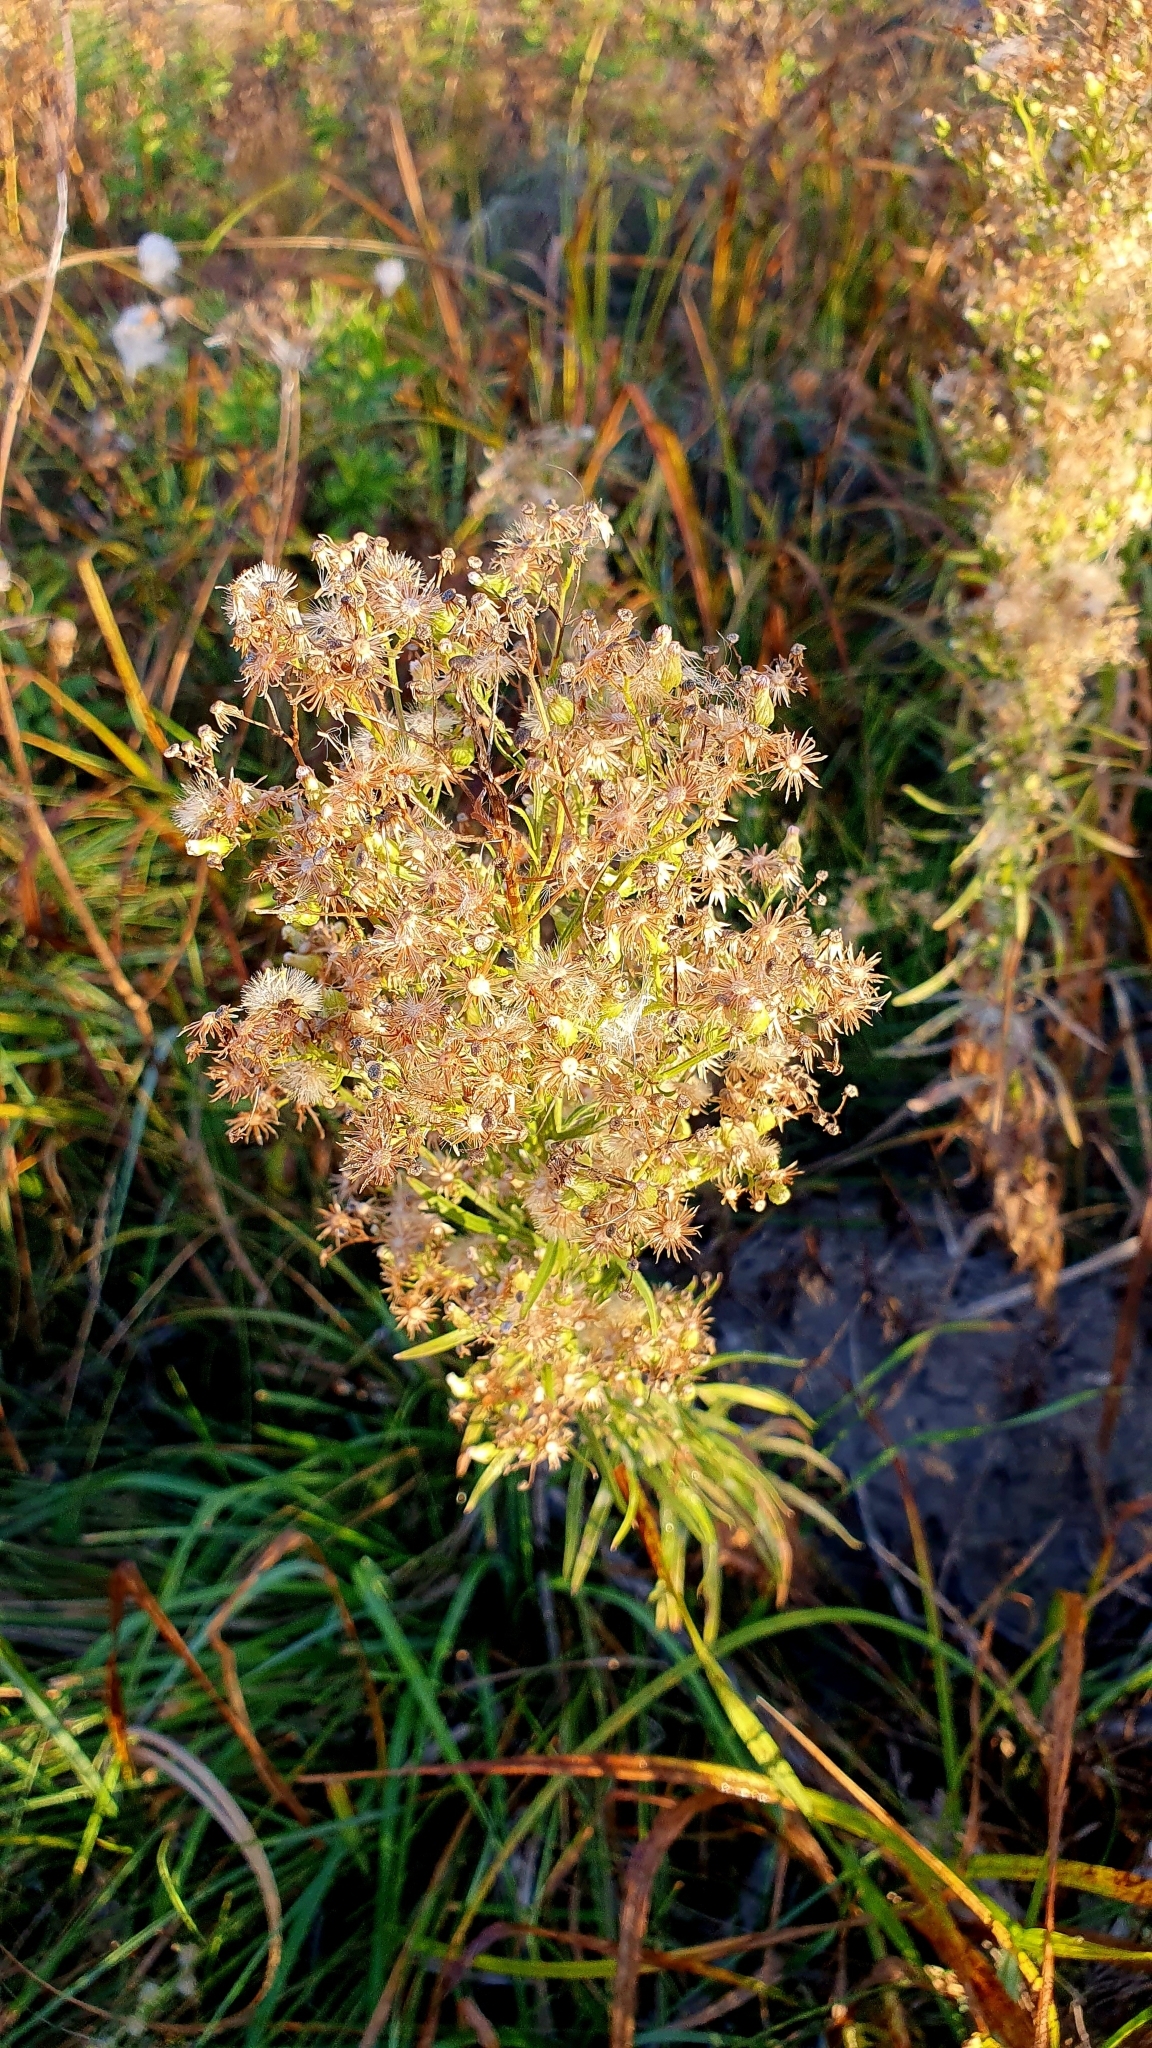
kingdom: Plantae
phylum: Tracheophyta
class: Magnoliopsida
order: Asterales
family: Asteraceae
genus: Erigeron
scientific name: Erigeron canadensis
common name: Canadian fleabane
